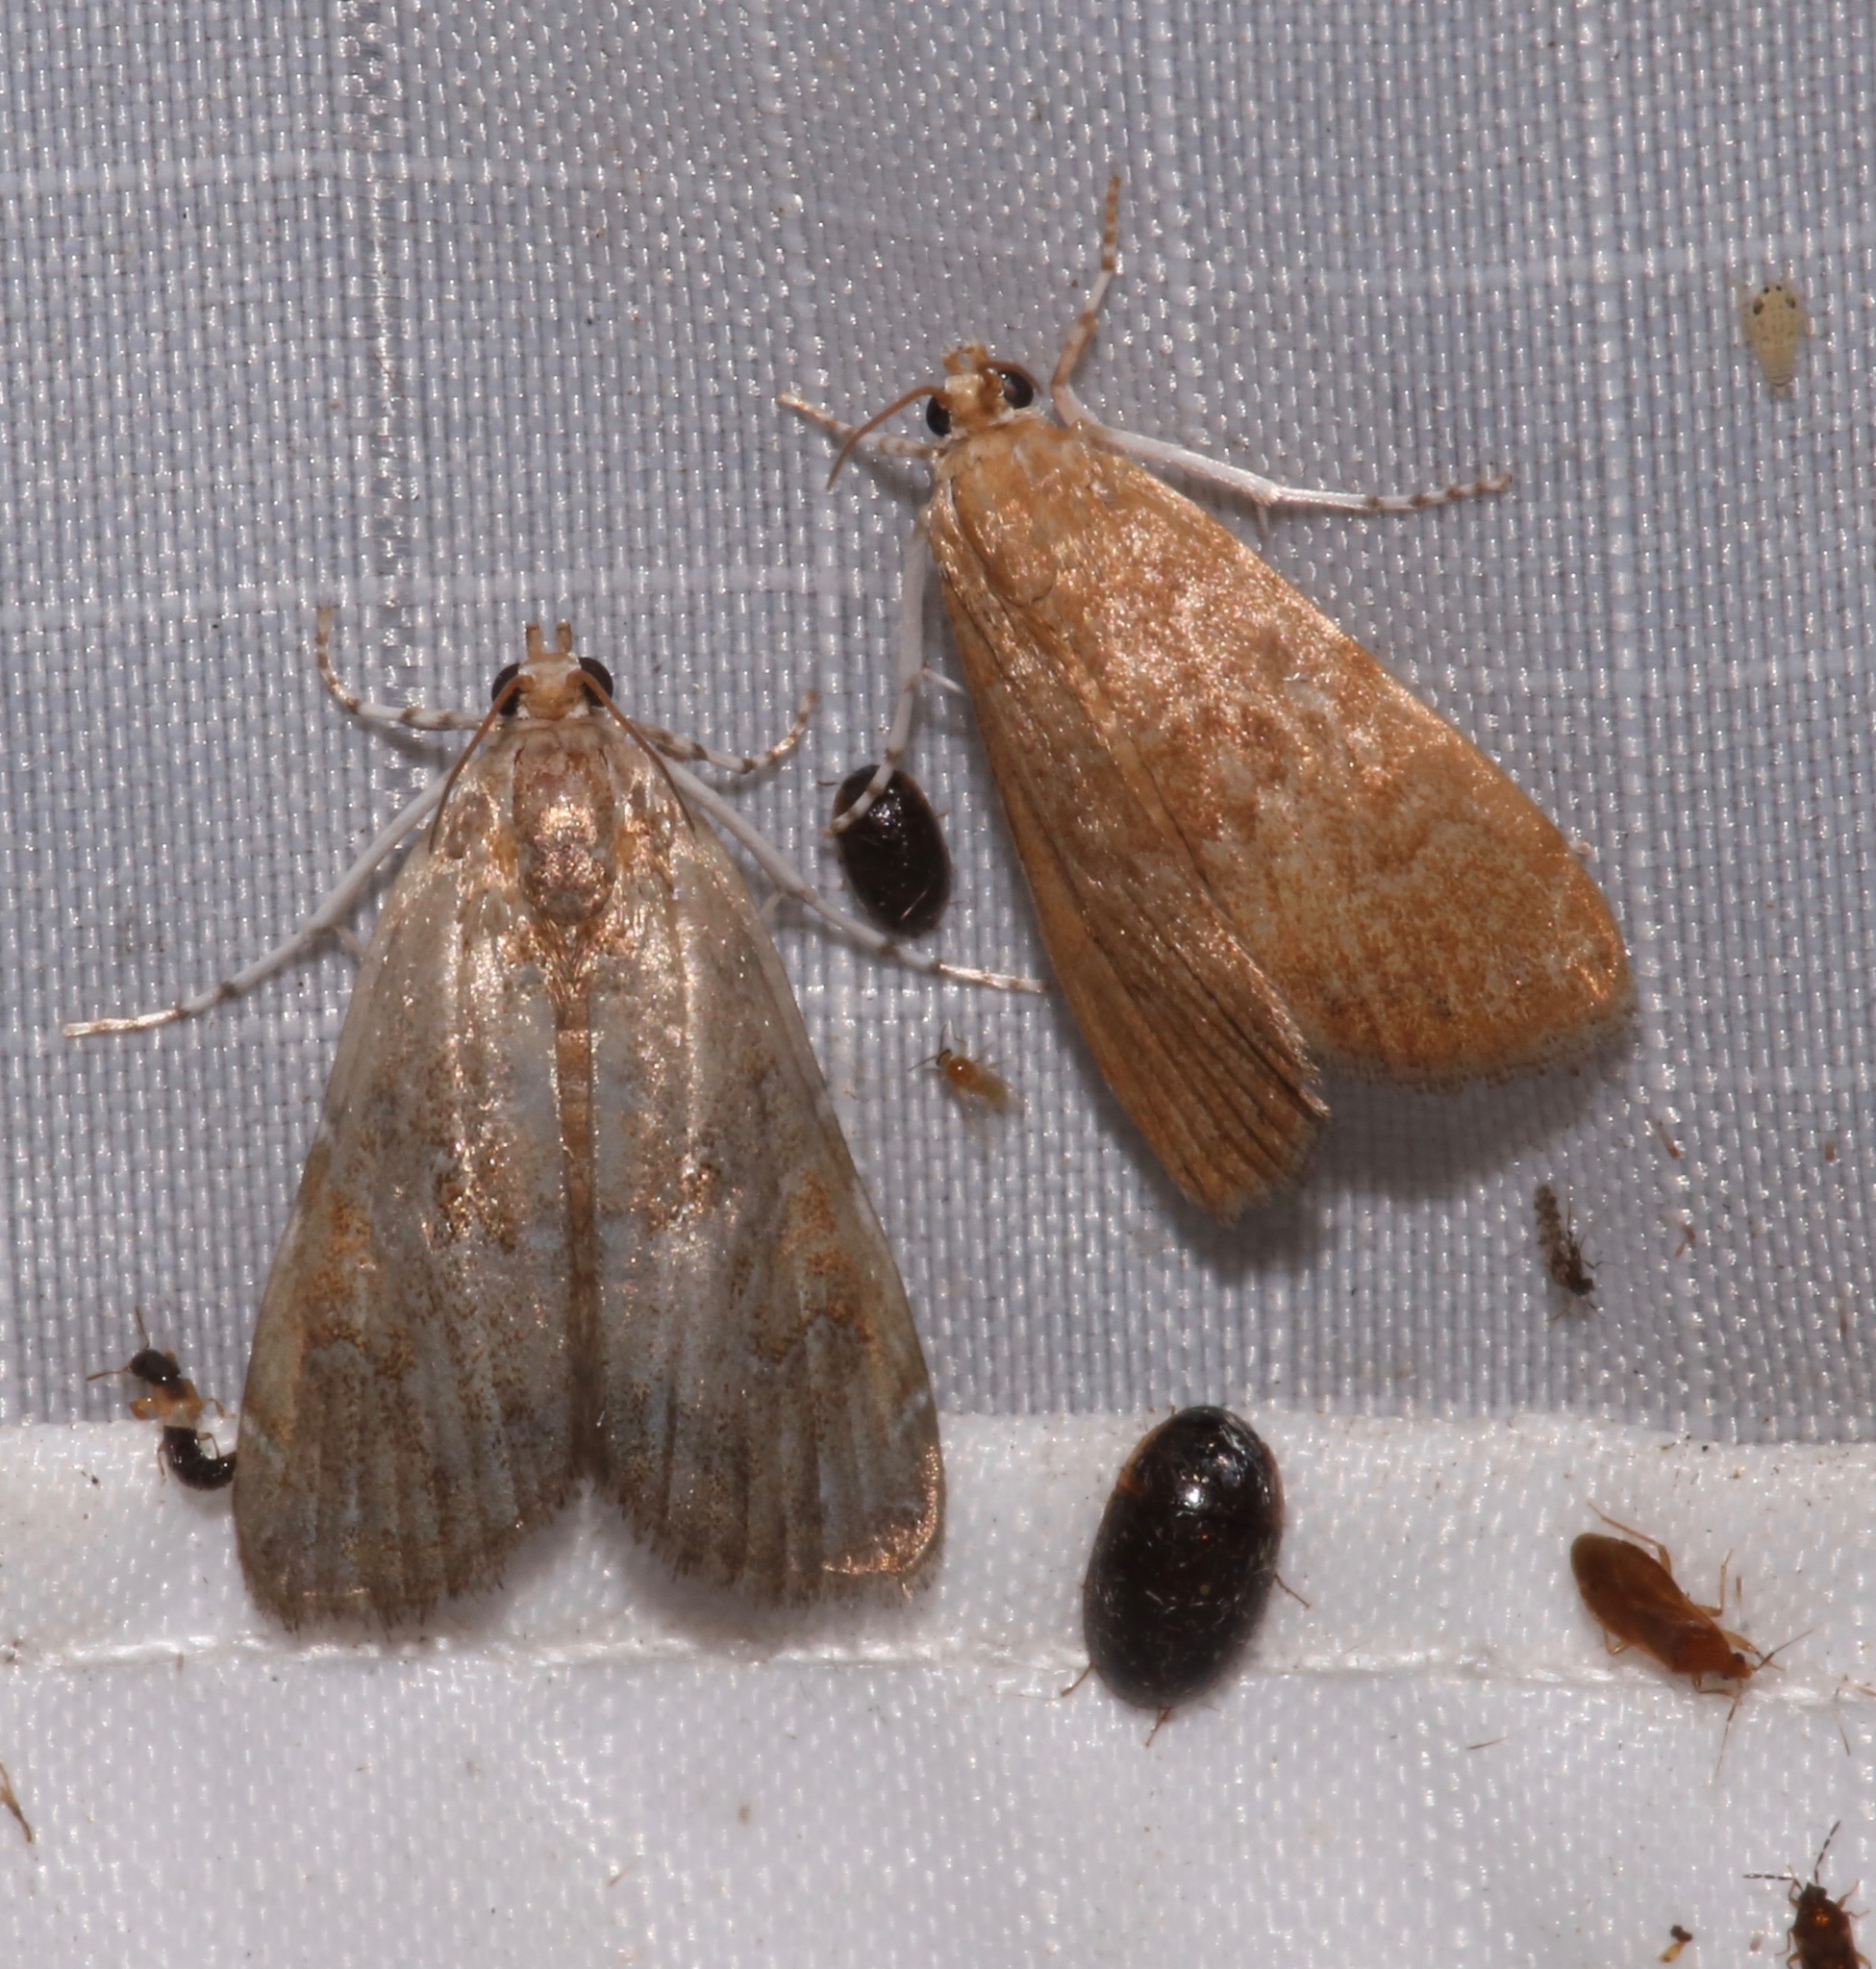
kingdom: Animalia
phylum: Arthropoda
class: Insecta
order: Lepidoptera
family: Crambidae
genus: Elophila
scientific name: Elophila gyralis
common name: Waterlily borer moth
